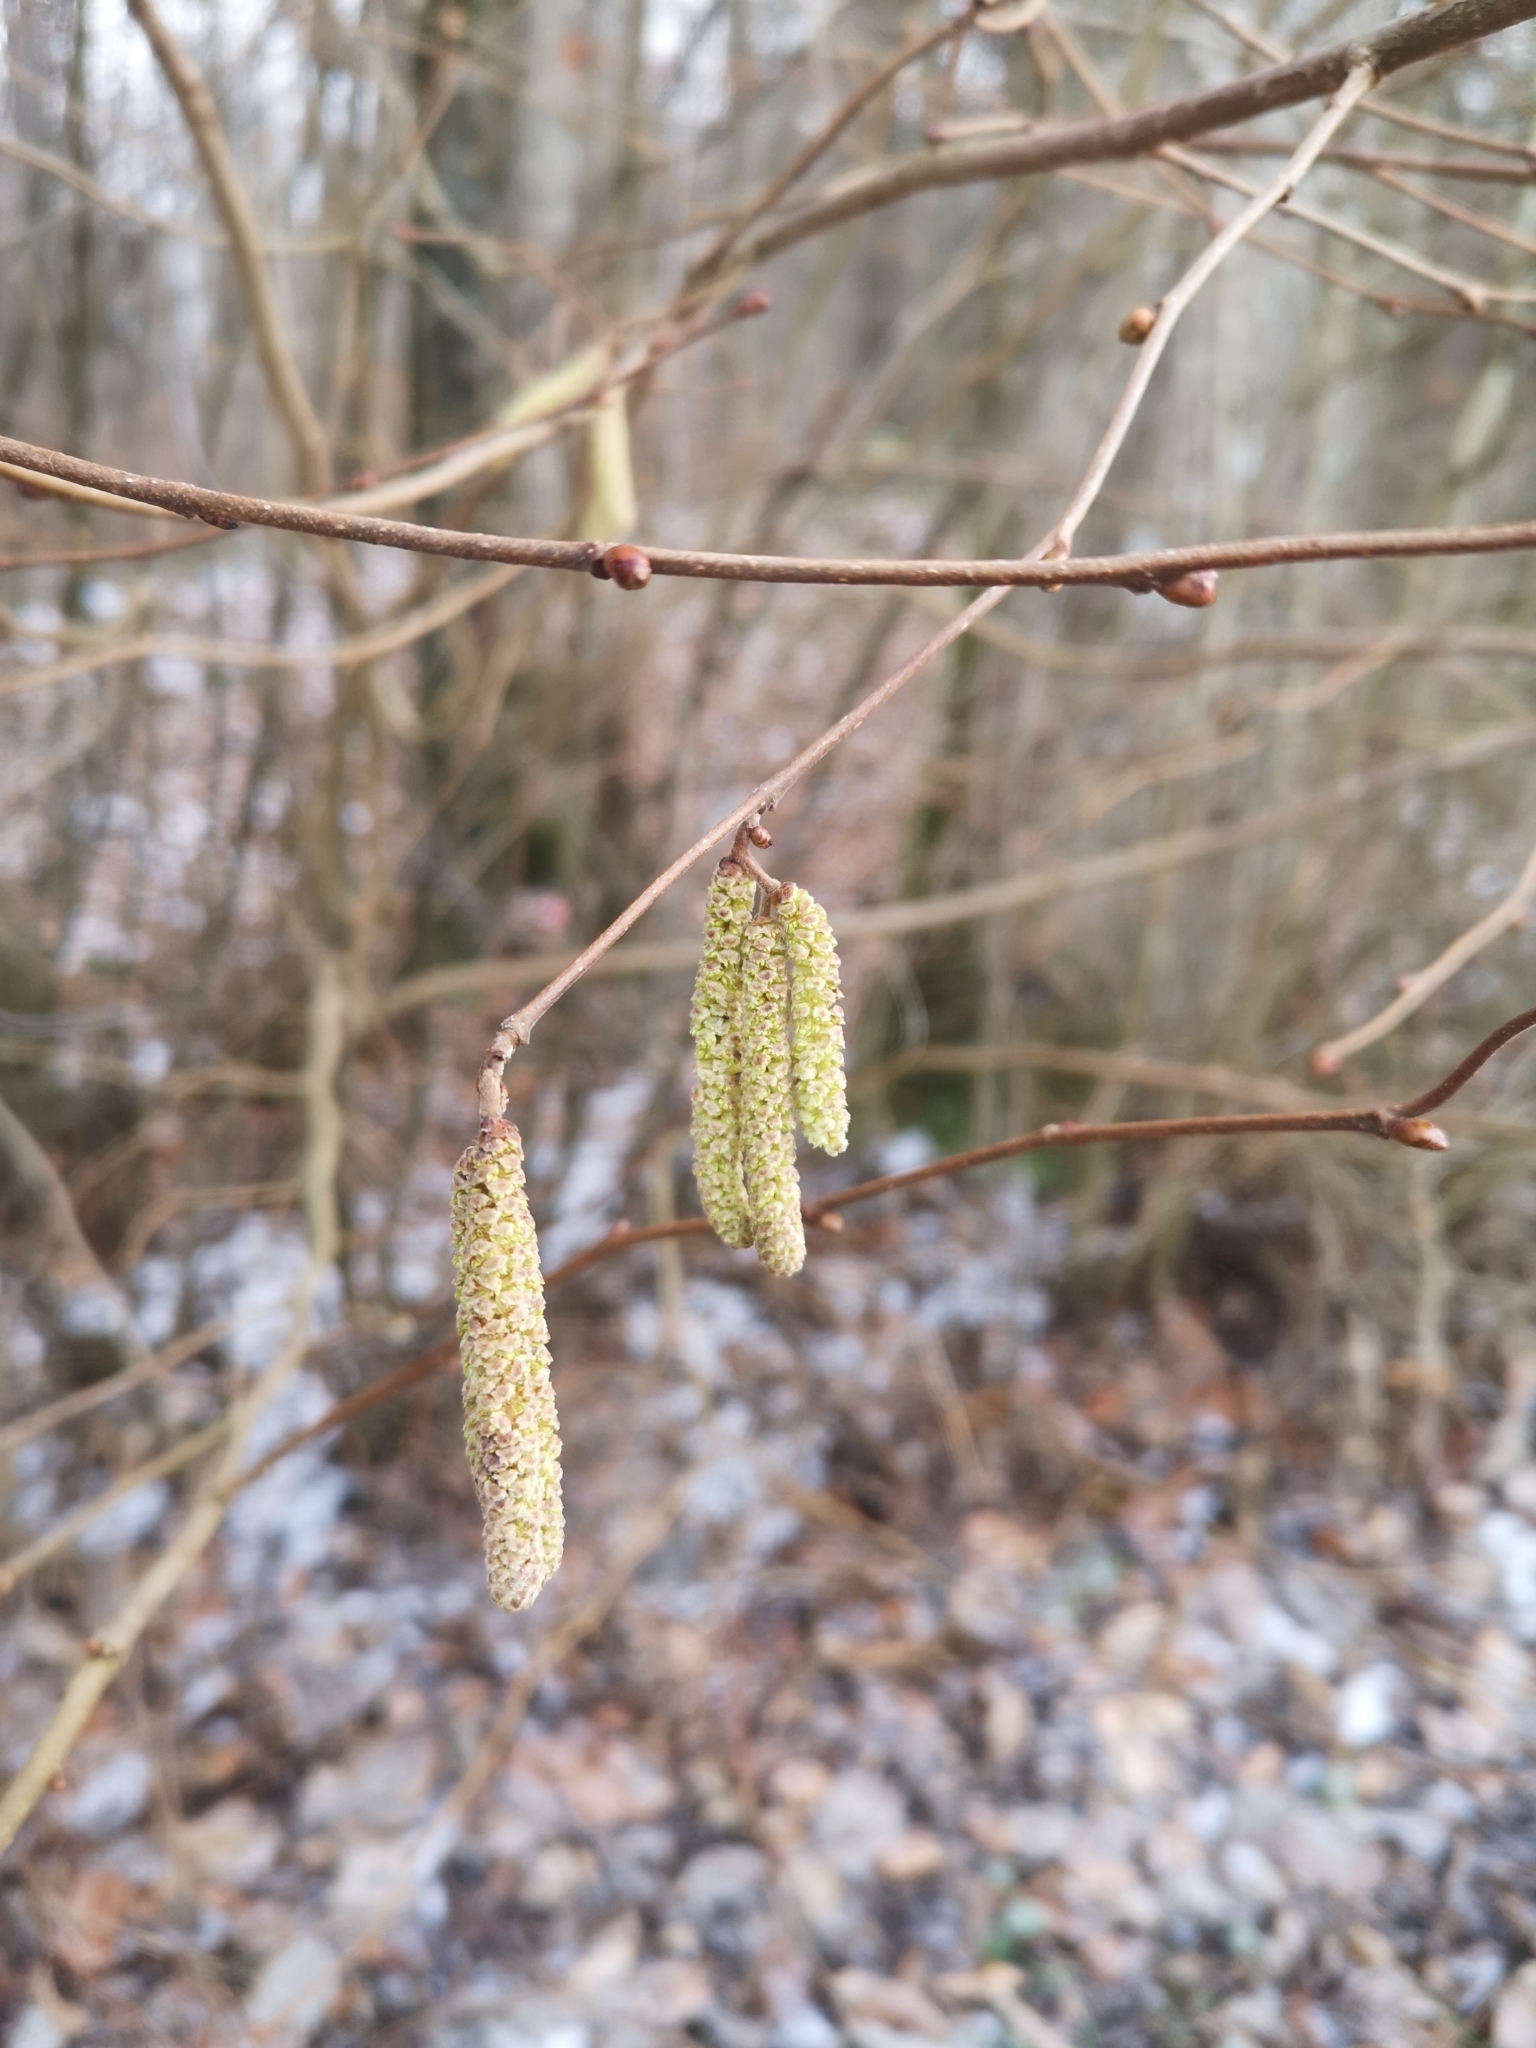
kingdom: Plantae
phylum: Tracheophyta
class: Magnoliopsida
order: Fagales
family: Betulaceae
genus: Corylus
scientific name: Corylus avellana
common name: European hazel
